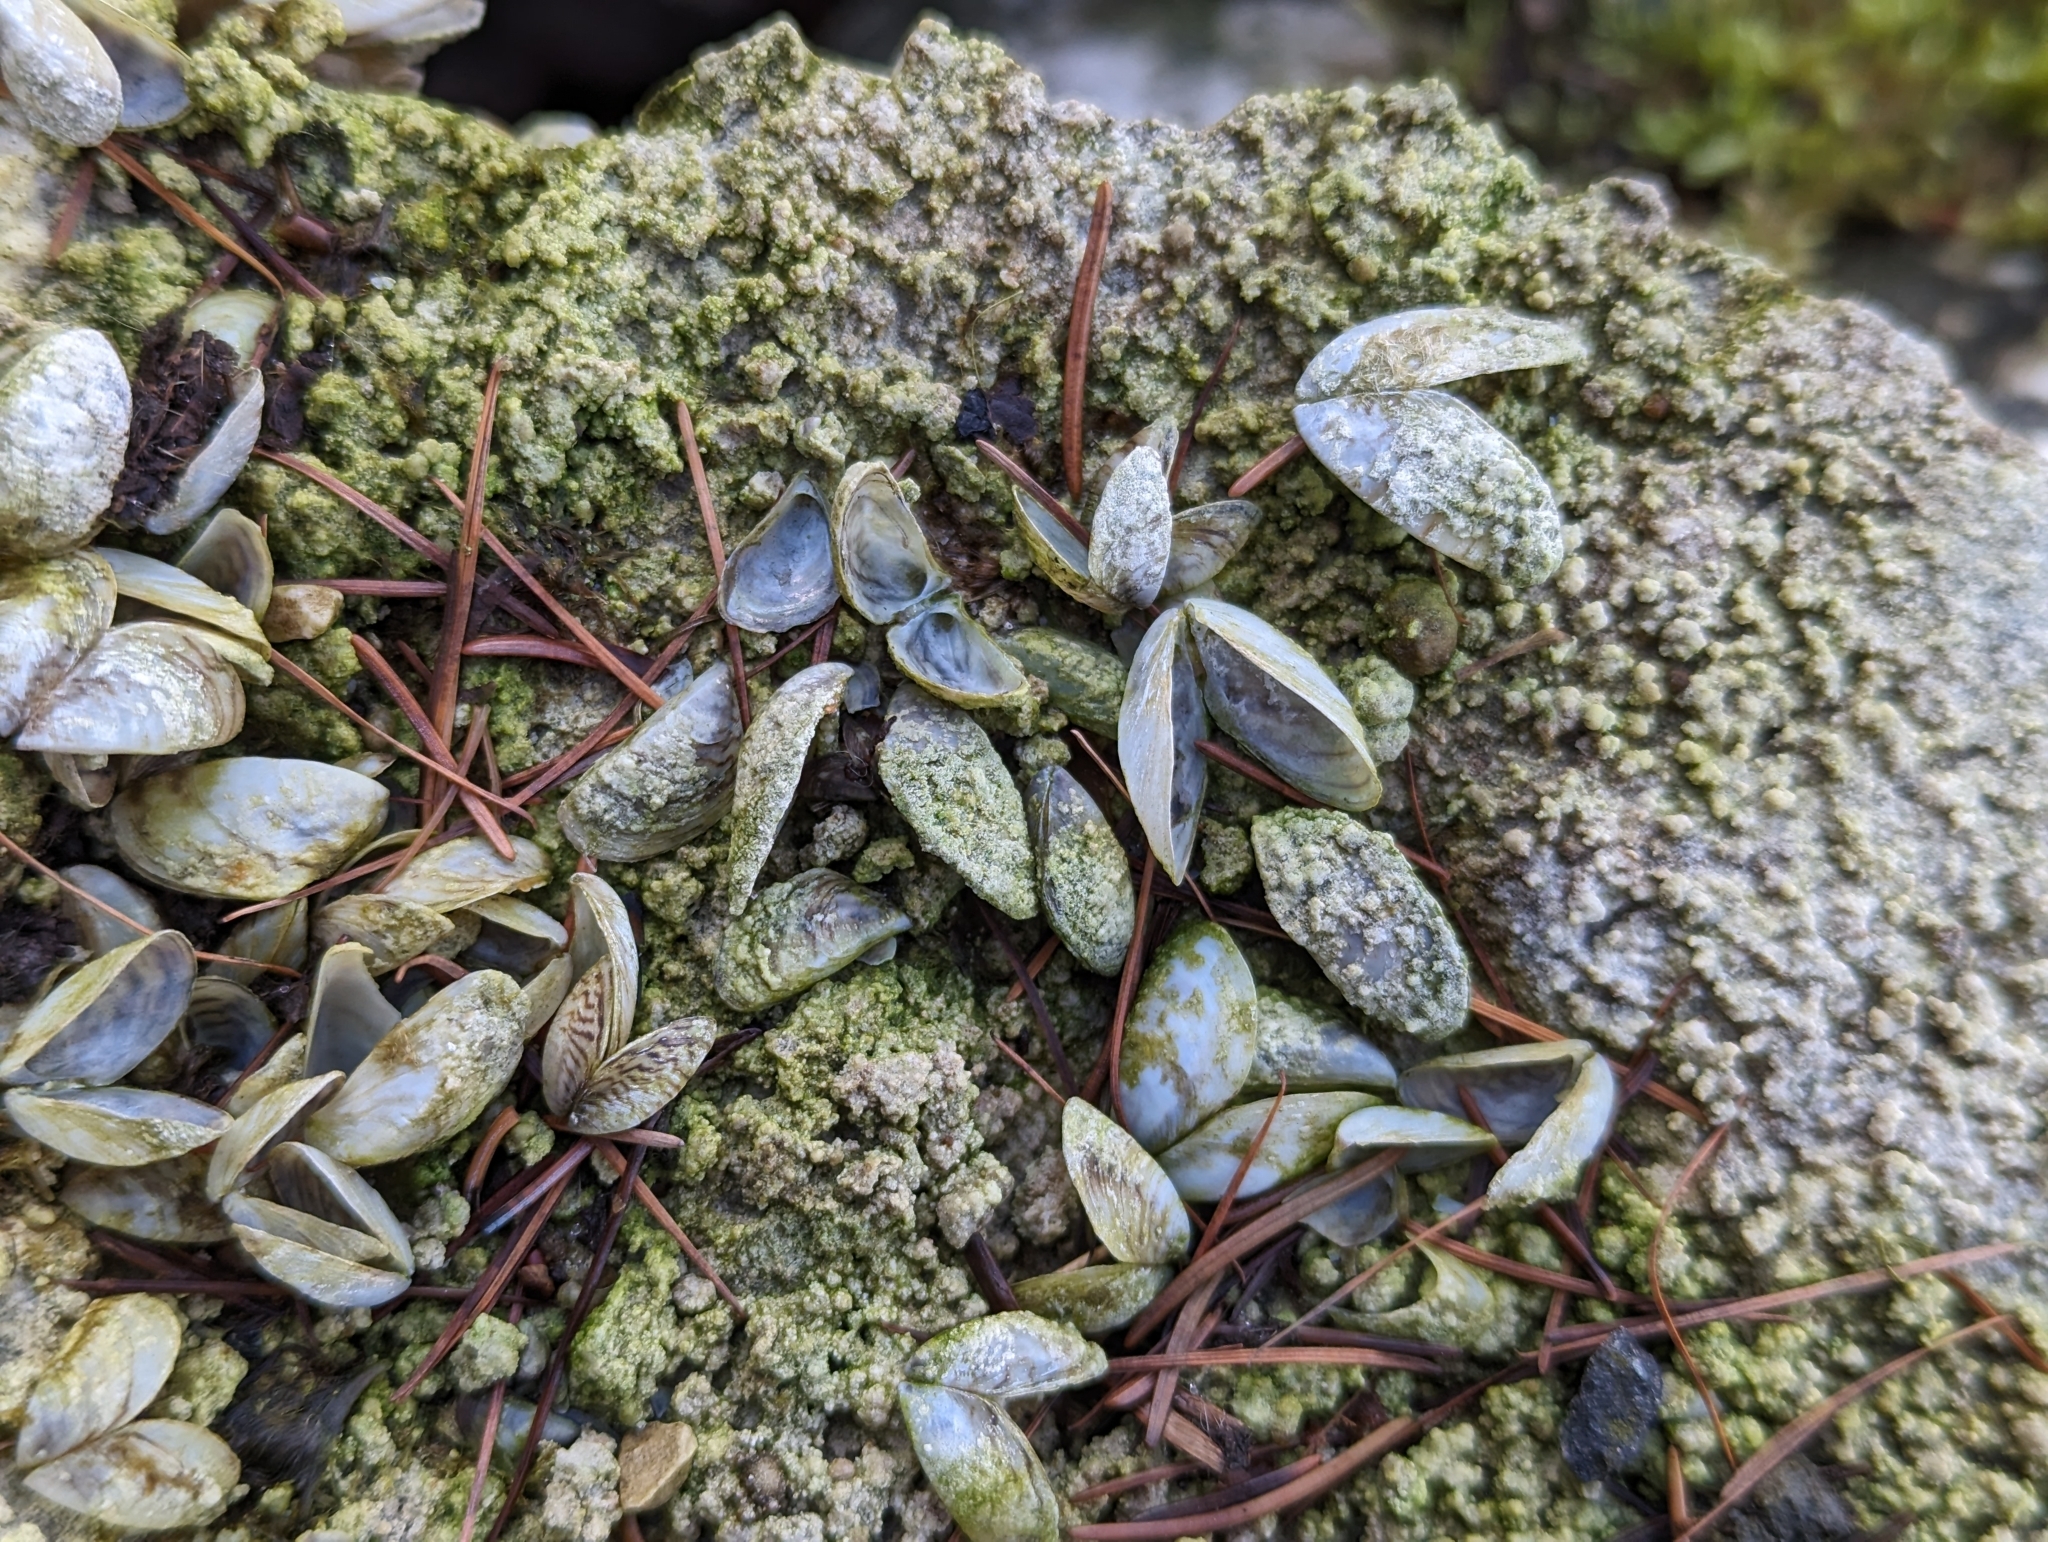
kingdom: Animalia
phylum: Mollusca
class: Bivalvia
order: Myida
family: Dreissenidae
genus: Dreissena
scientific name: Dreissena polymorpha
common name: Zebra mussel
